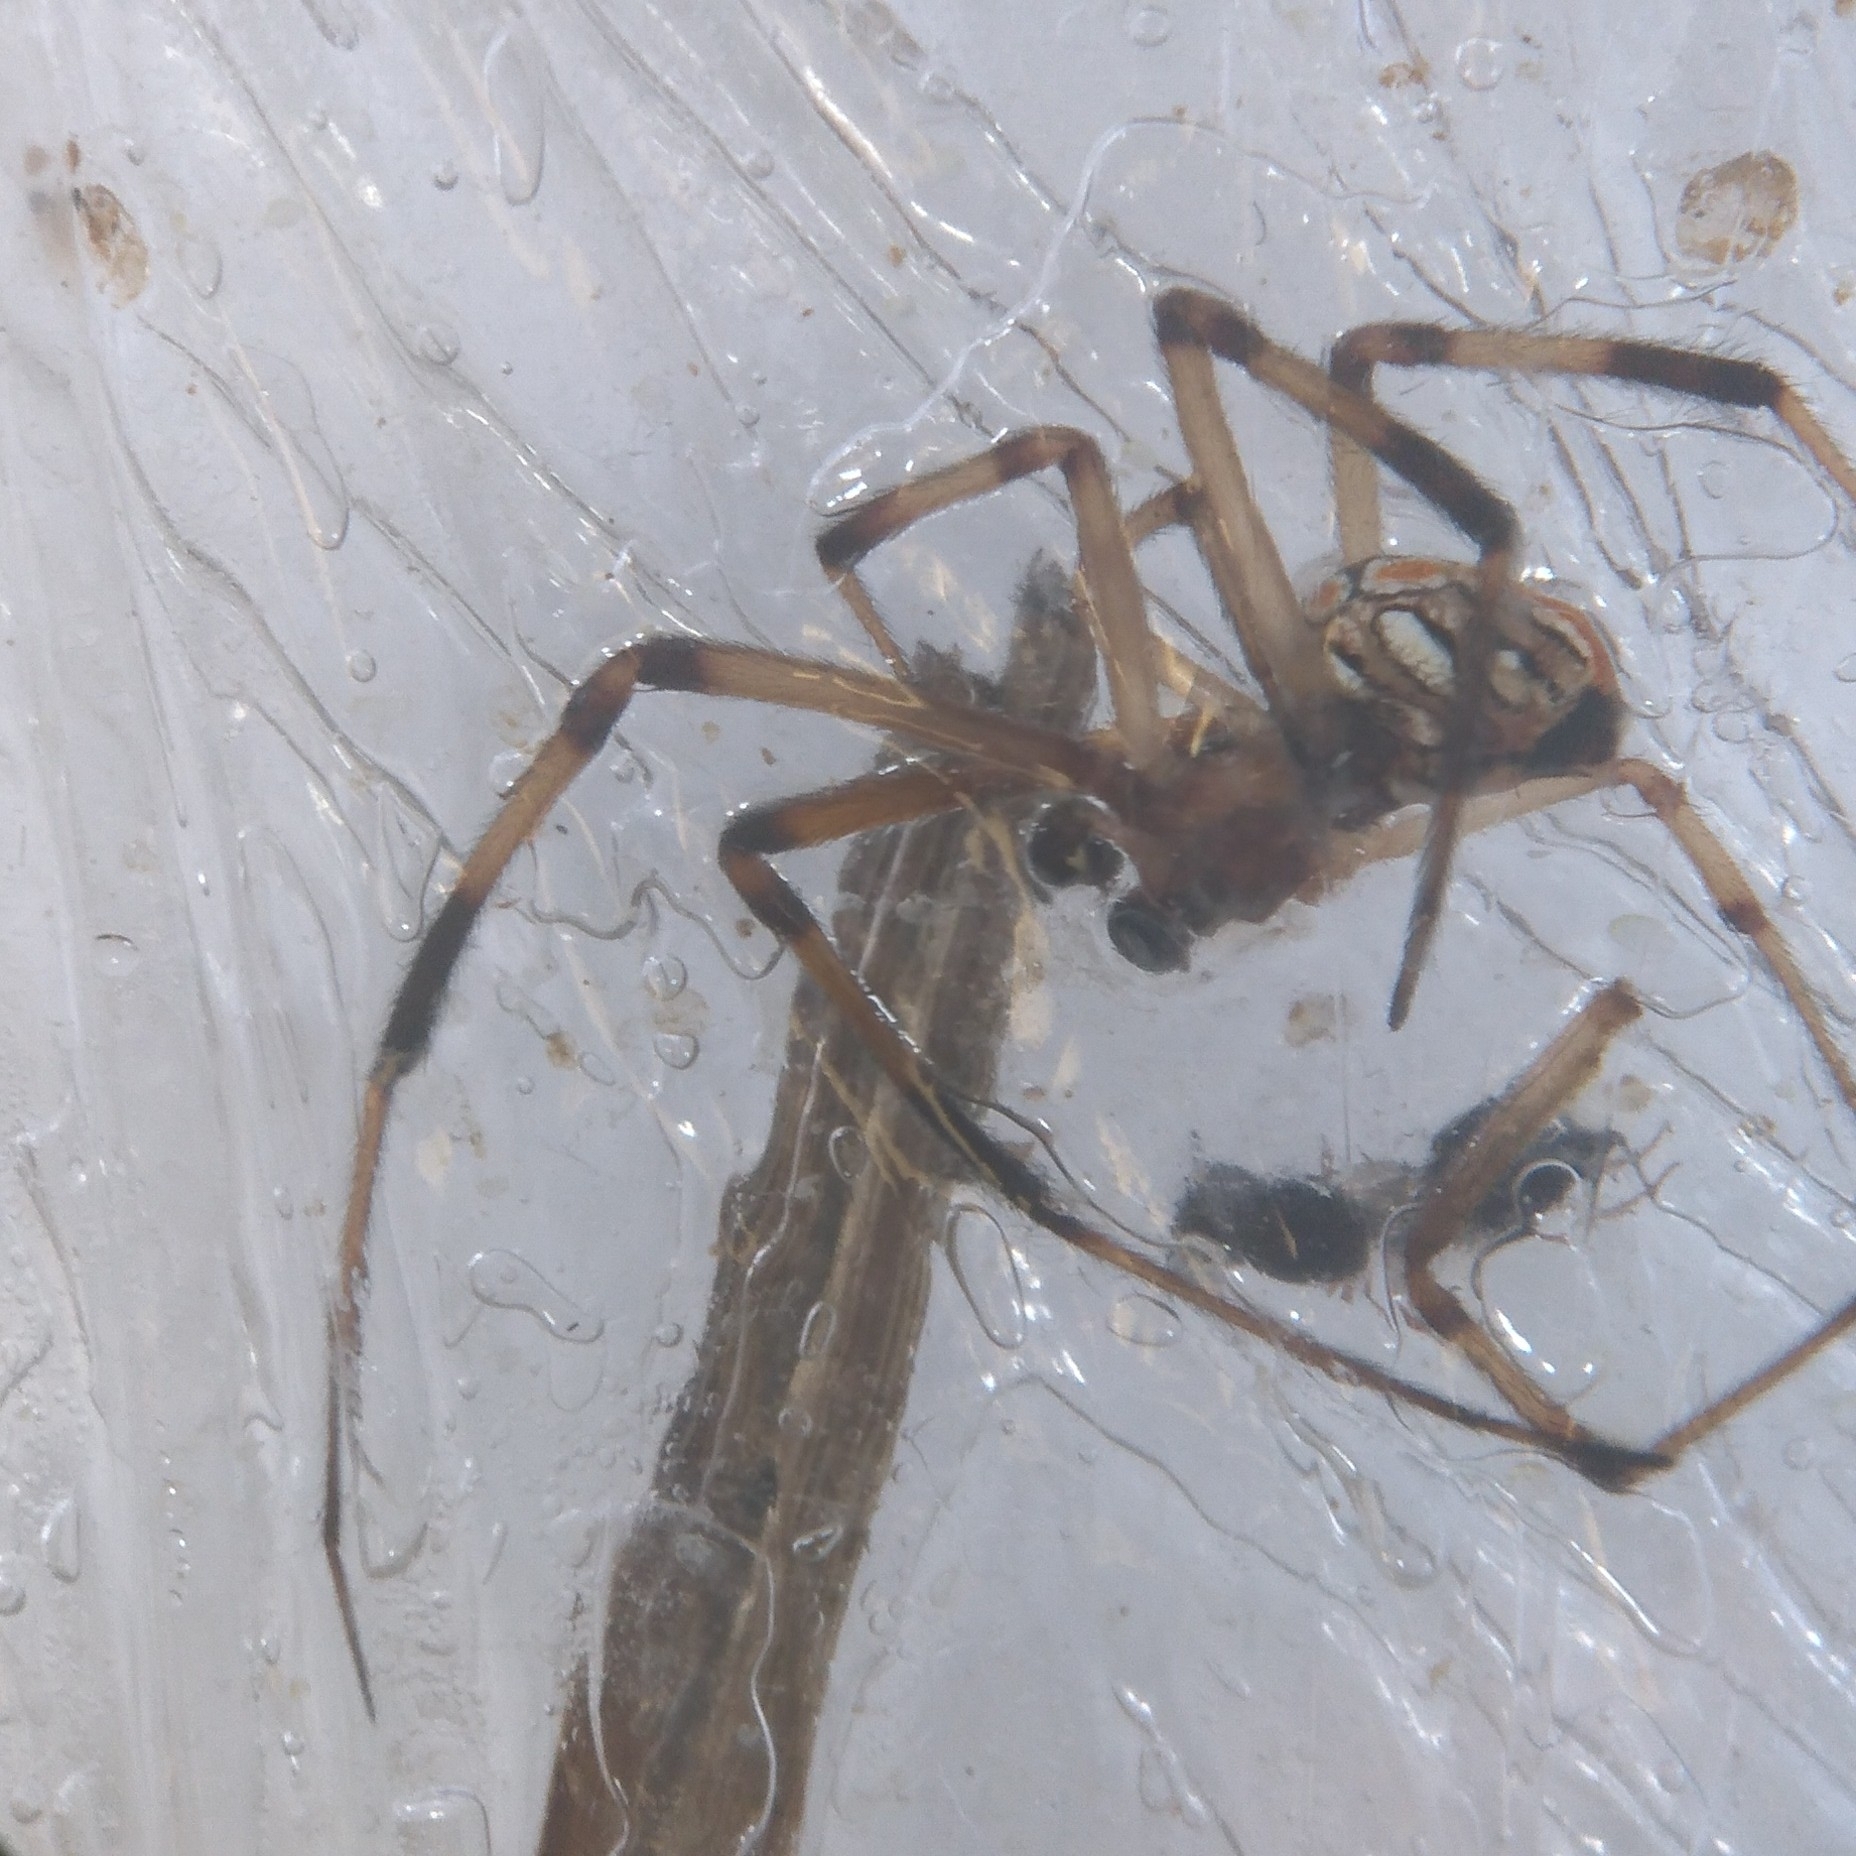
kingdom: Animalia
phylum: Arthropoda
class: Arachnida
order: Araneae
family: Theridiidae
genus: Latrodectus
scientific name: Latrodectus geometricus
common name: Brown widow spider
